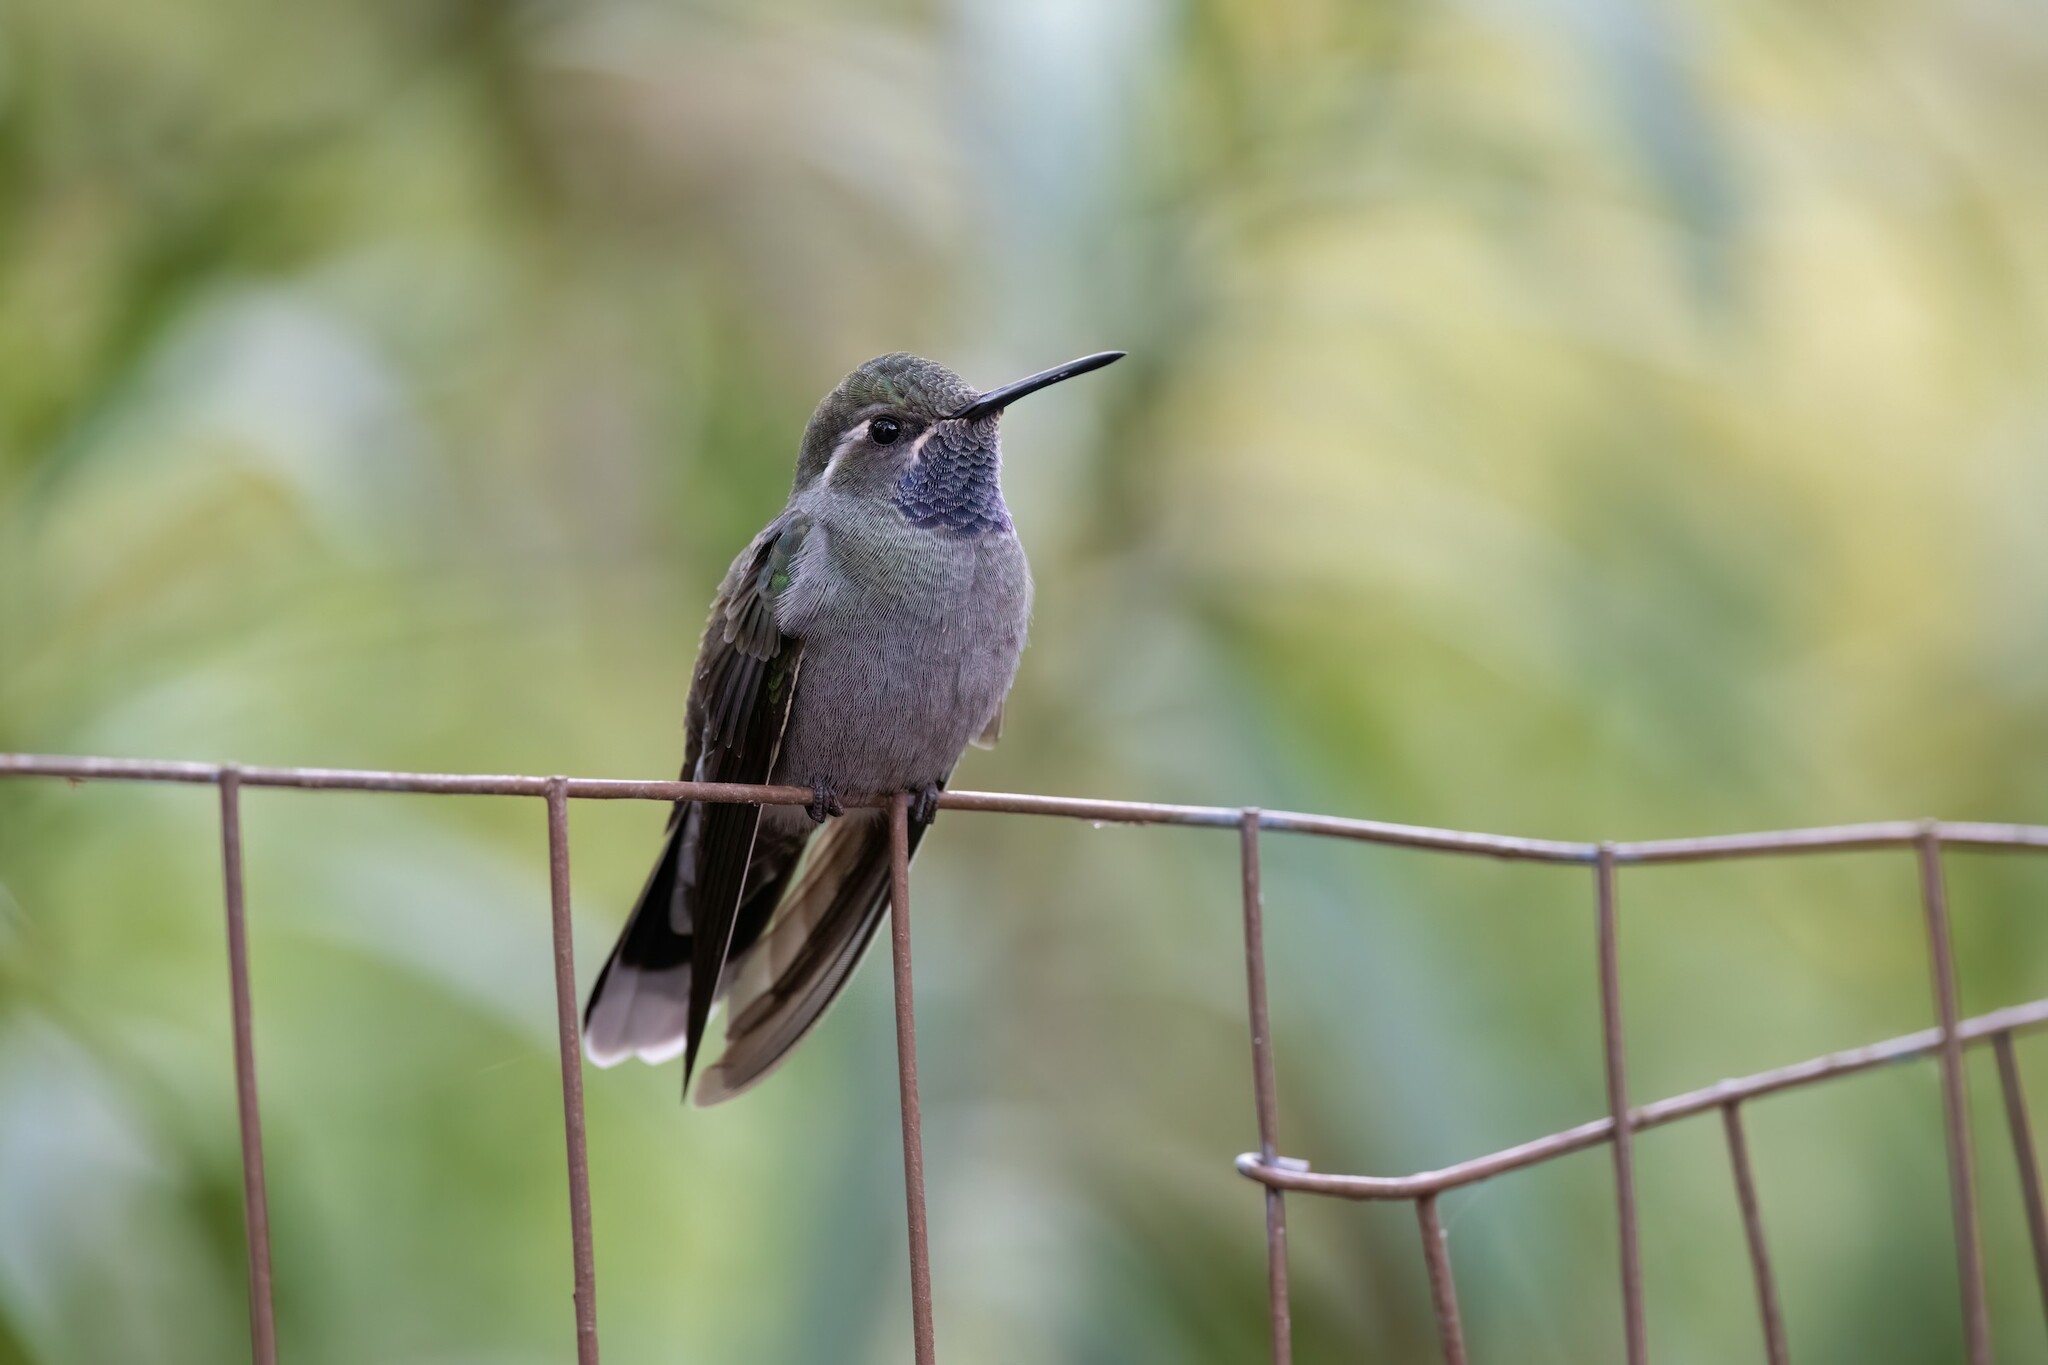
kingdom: Animalia
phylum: Chordata
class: Aves
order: Apodiformes
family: Trochilidae
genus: Lampornis
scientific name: Lampornis clemenciae
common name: Blue-throated mountaingem
